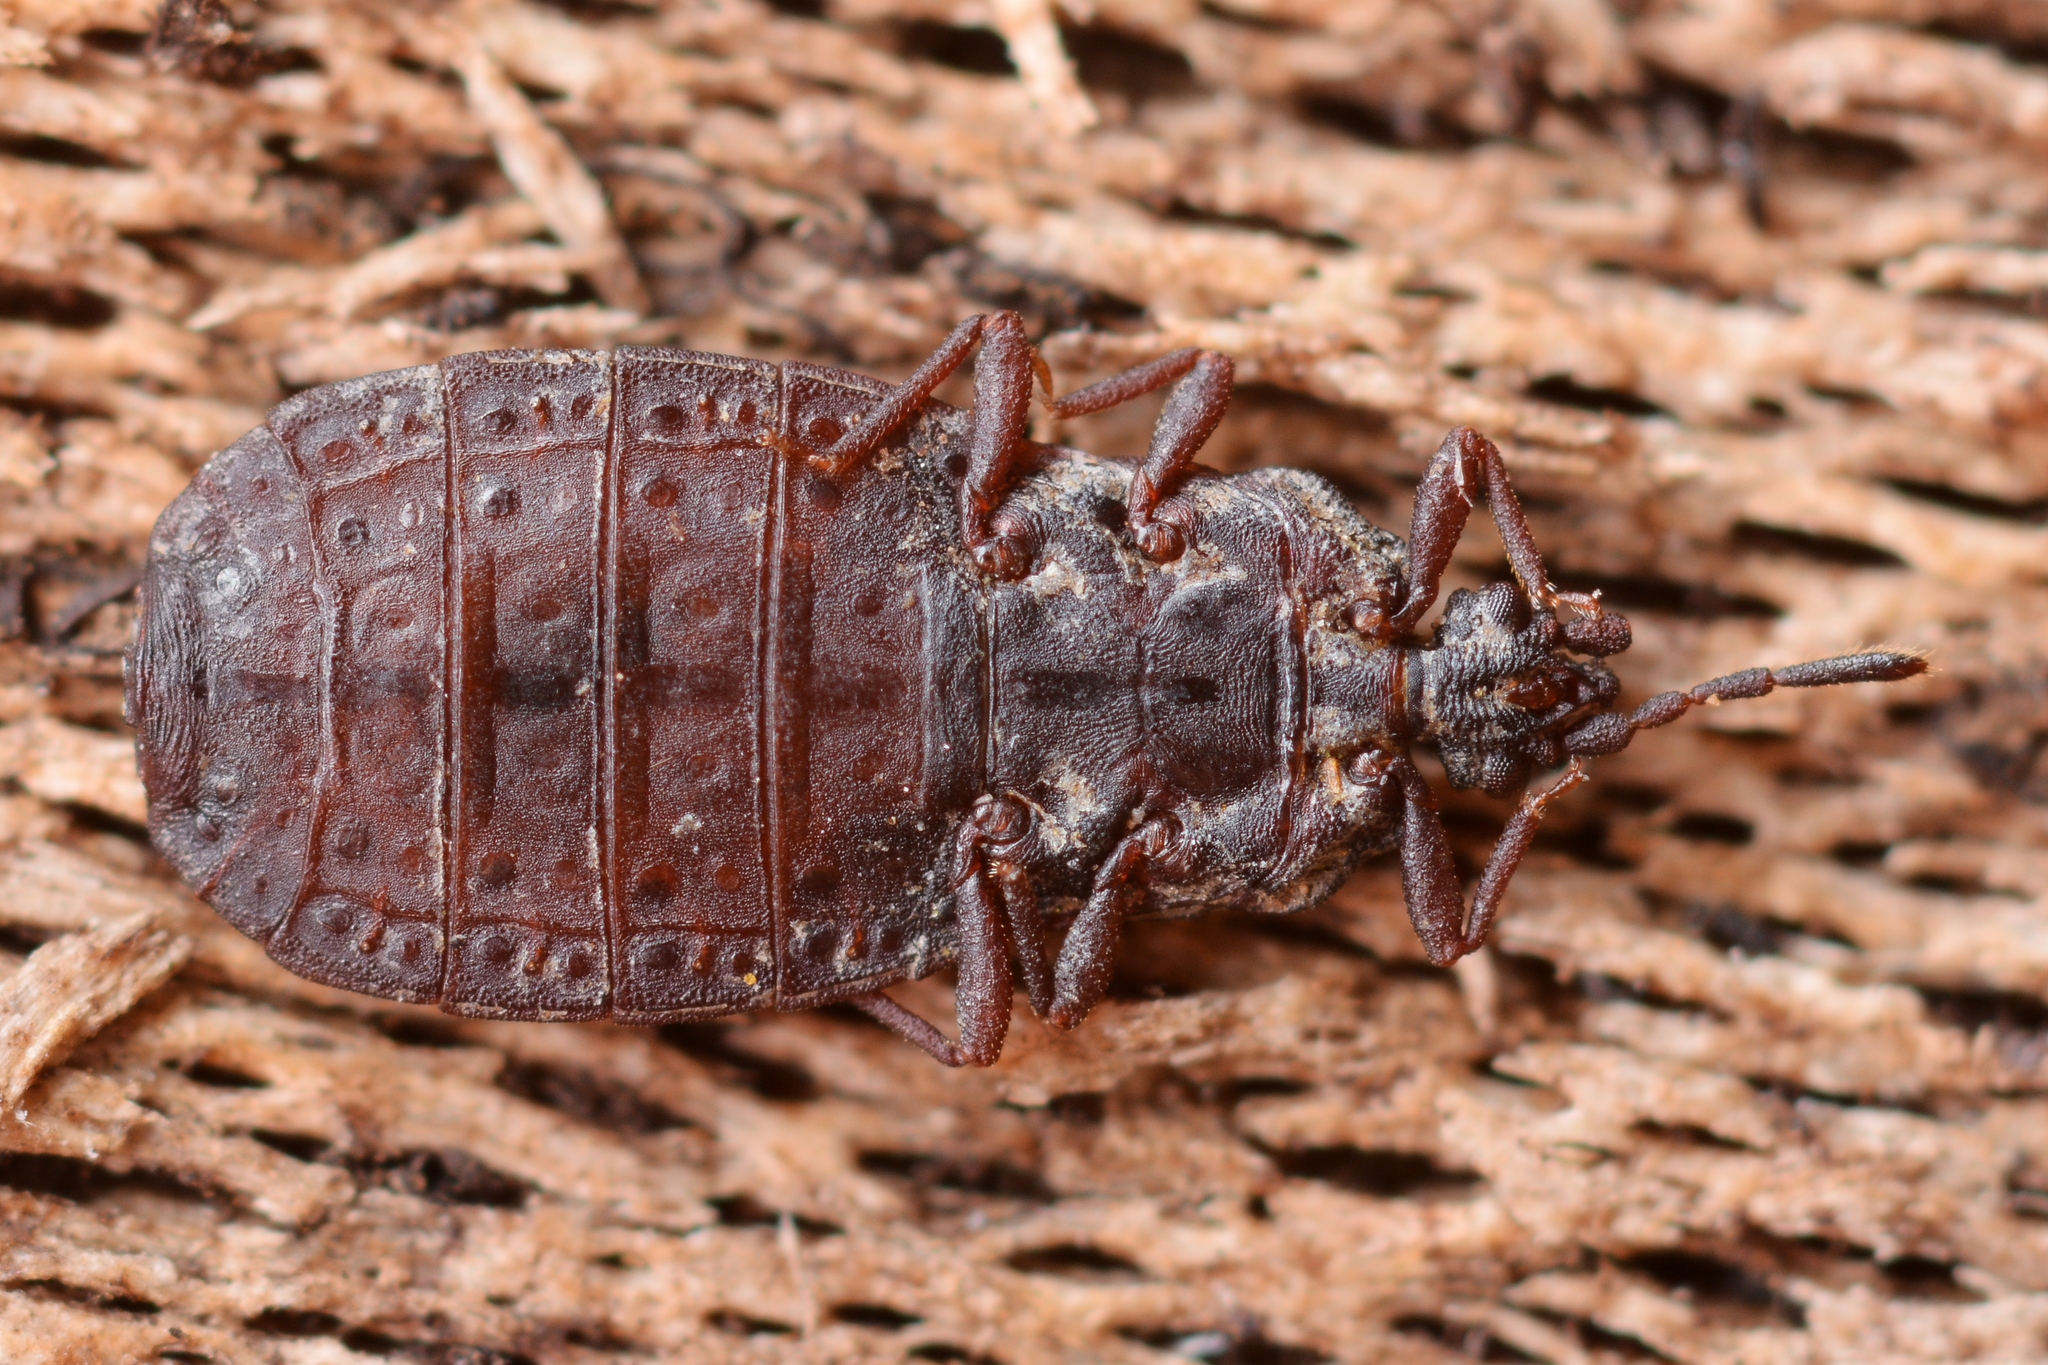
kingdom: Animalia
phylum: Arthropoda
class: Insecta
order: Hemiptera
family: Aradidae
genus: Aneurus
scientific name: Aneurus avenius
